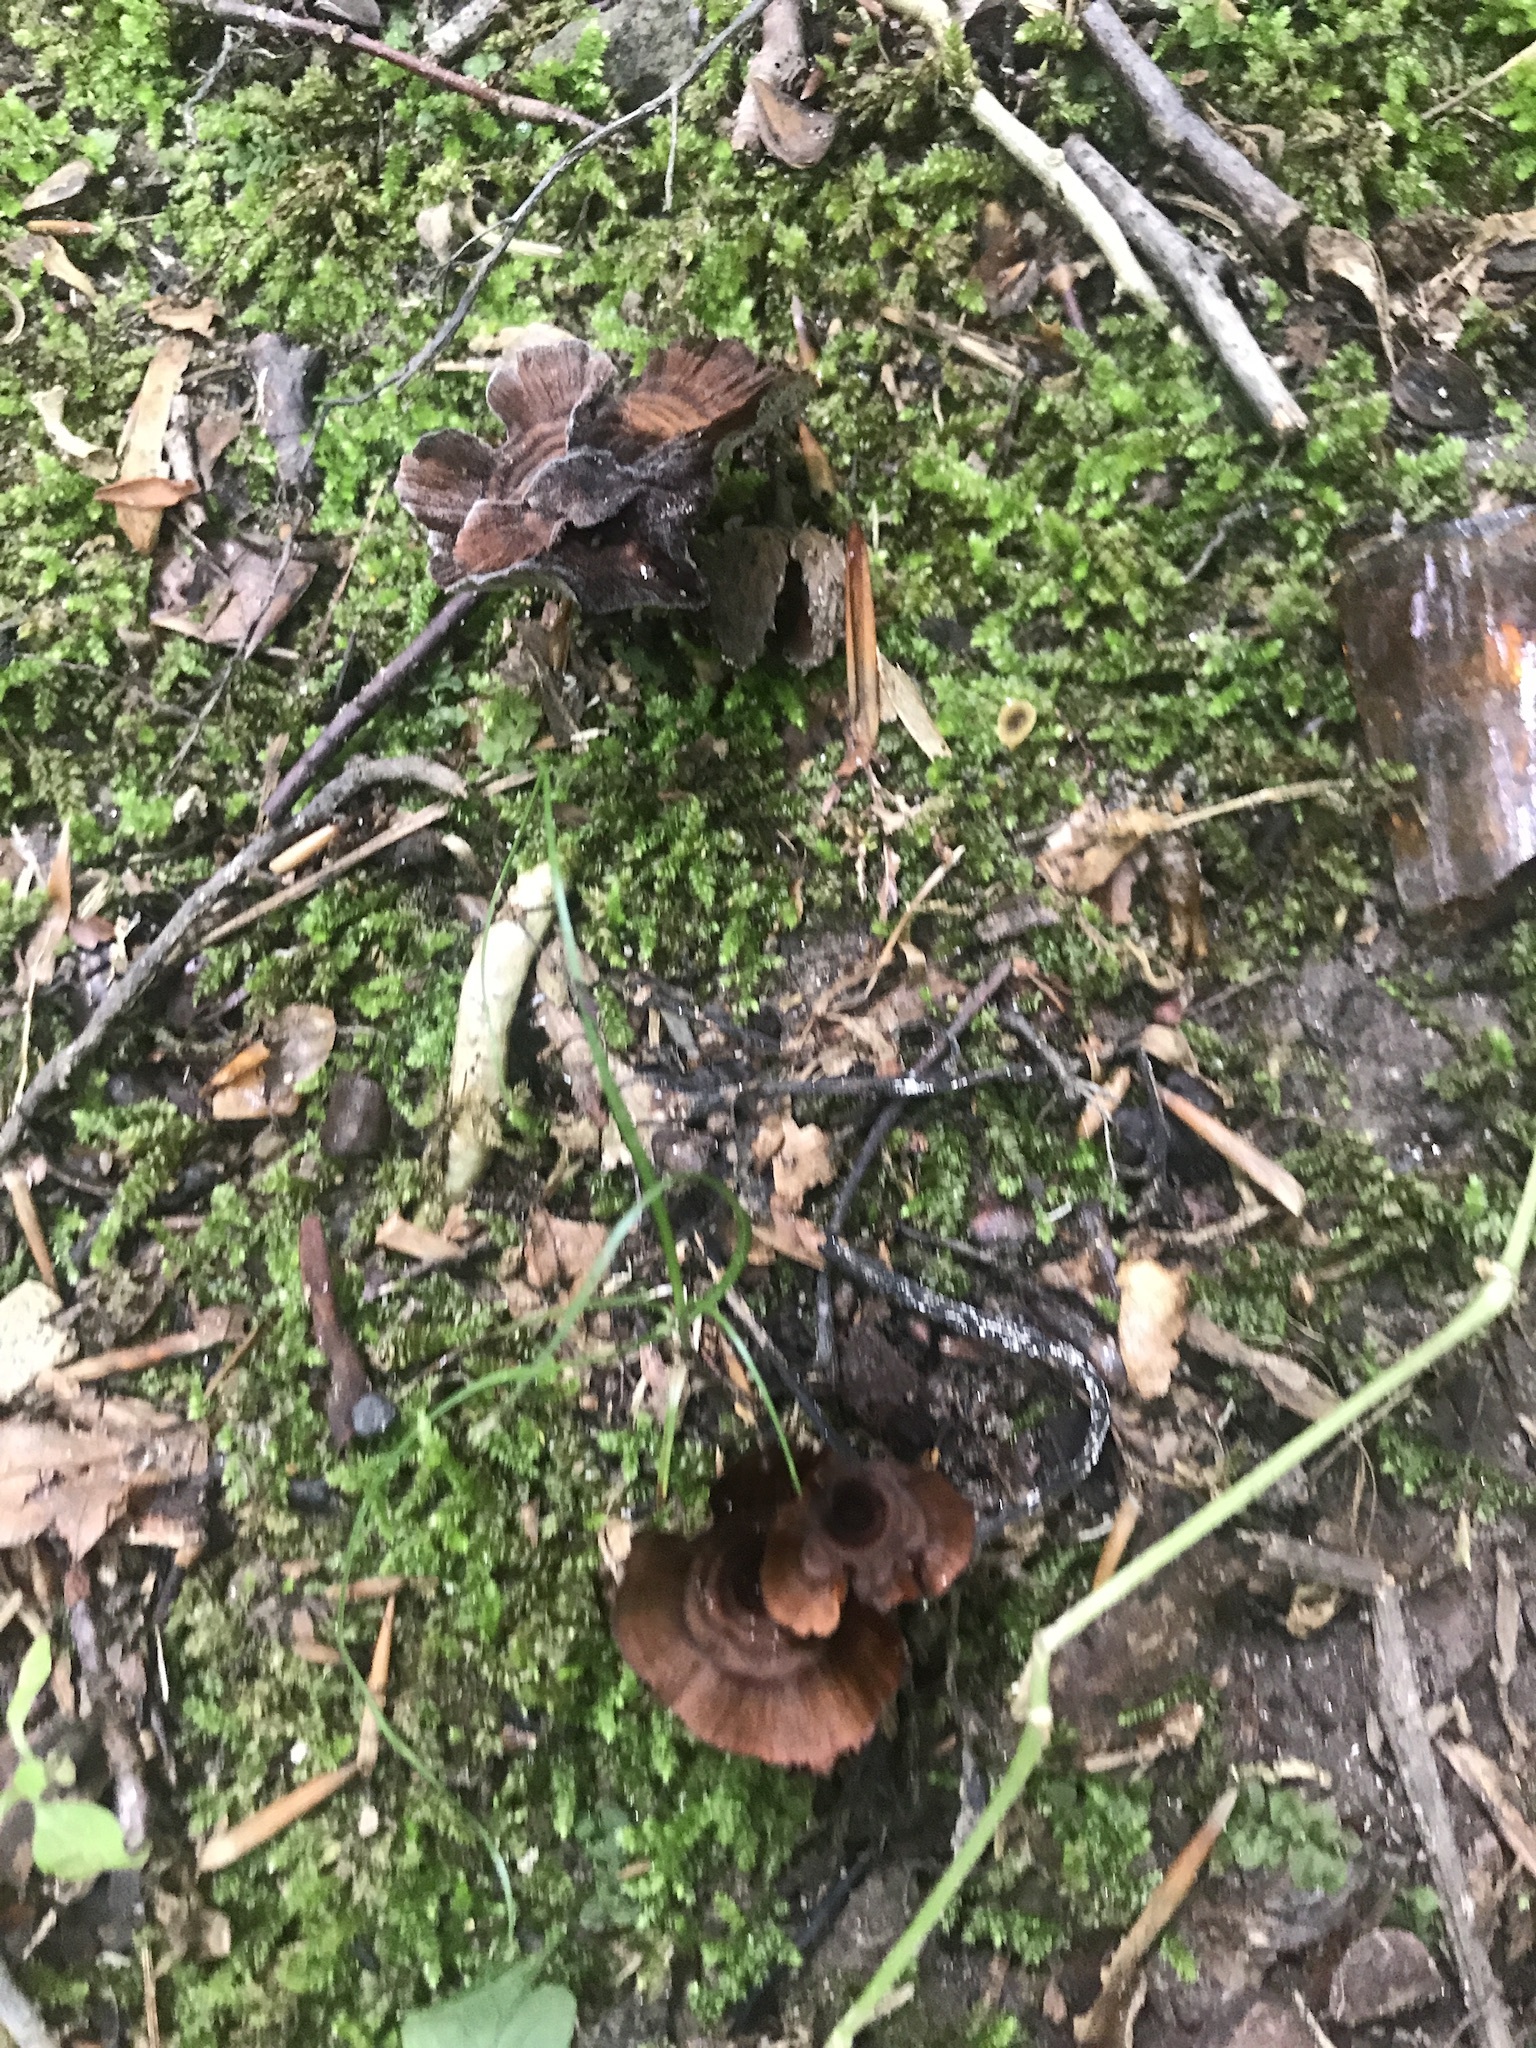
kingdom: Fungi
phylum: Basidiomycota
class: Agaricomycetes
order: Hymenochaetales
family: Hymenochaetaceae
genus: Coltricia
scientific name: Coltricia cinnamomea
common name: Shiny cinnamon polypore
